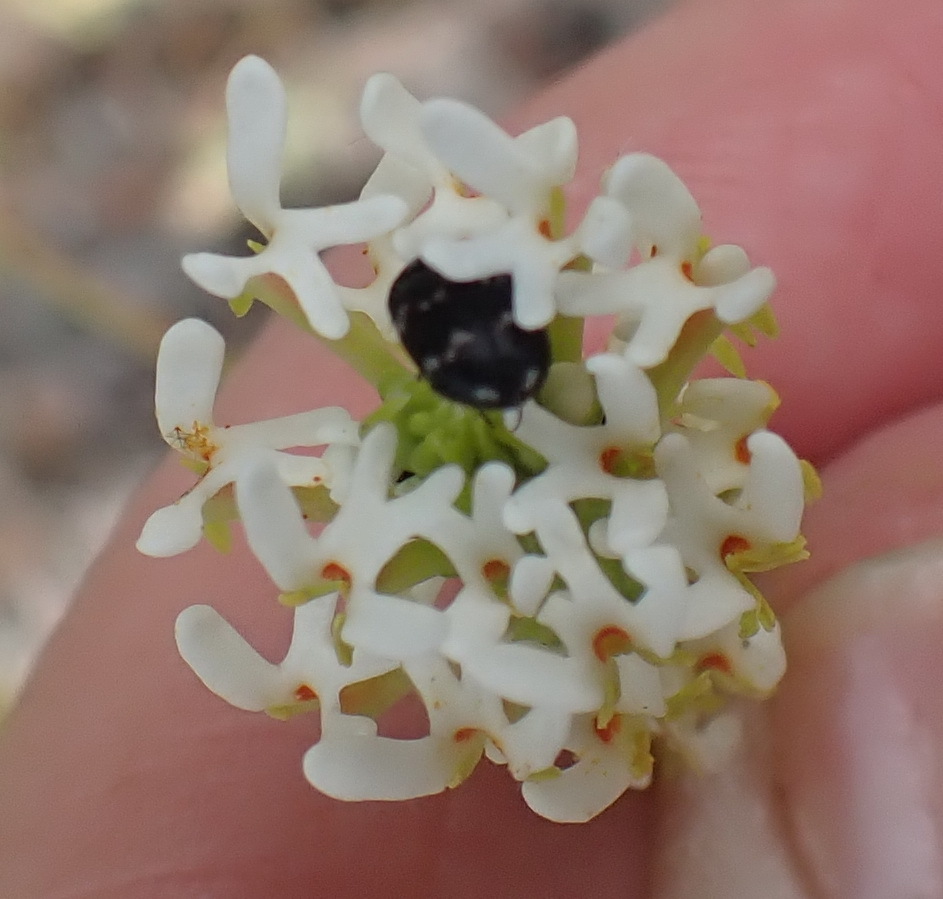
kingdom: Plantae
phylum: Tracheophyta
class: Magnoliopsida
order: Lamiales
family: Scrophulariaceae
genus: Hebenstretia
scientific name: Hebenstretia integrifolia
